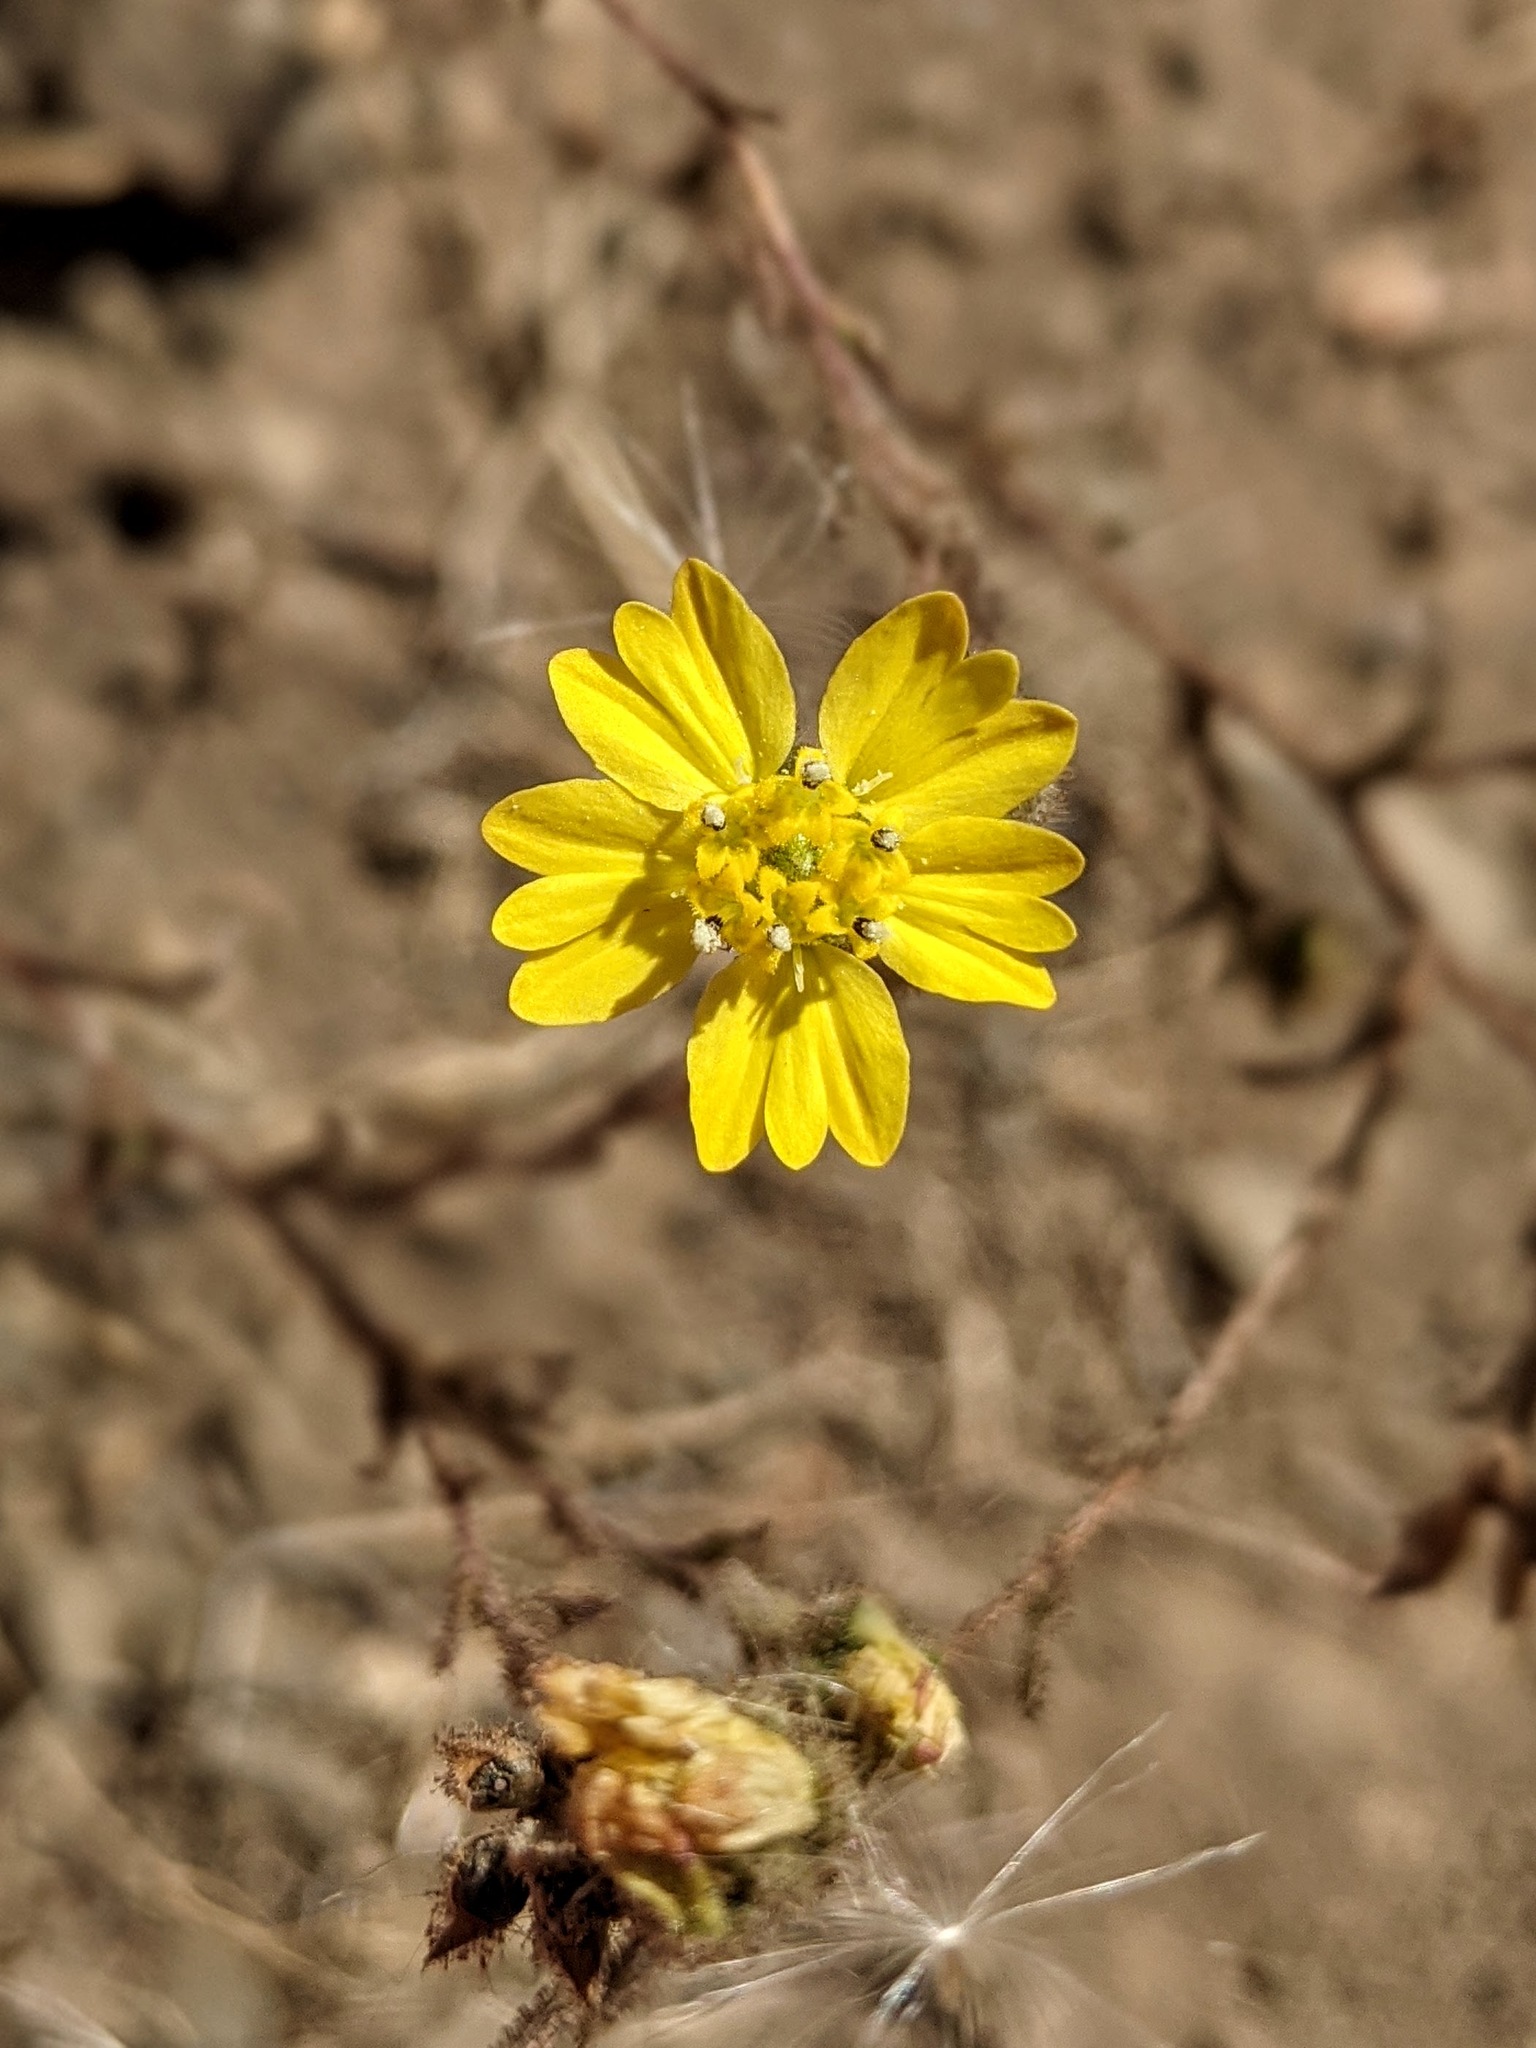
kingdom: Plantae
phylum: Tracheophyta
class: Magnoliopsida
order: Asterales
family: Asteraceae
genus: Hemizonia
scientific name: Hemizonia congesta
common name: Hayfield tarweed
